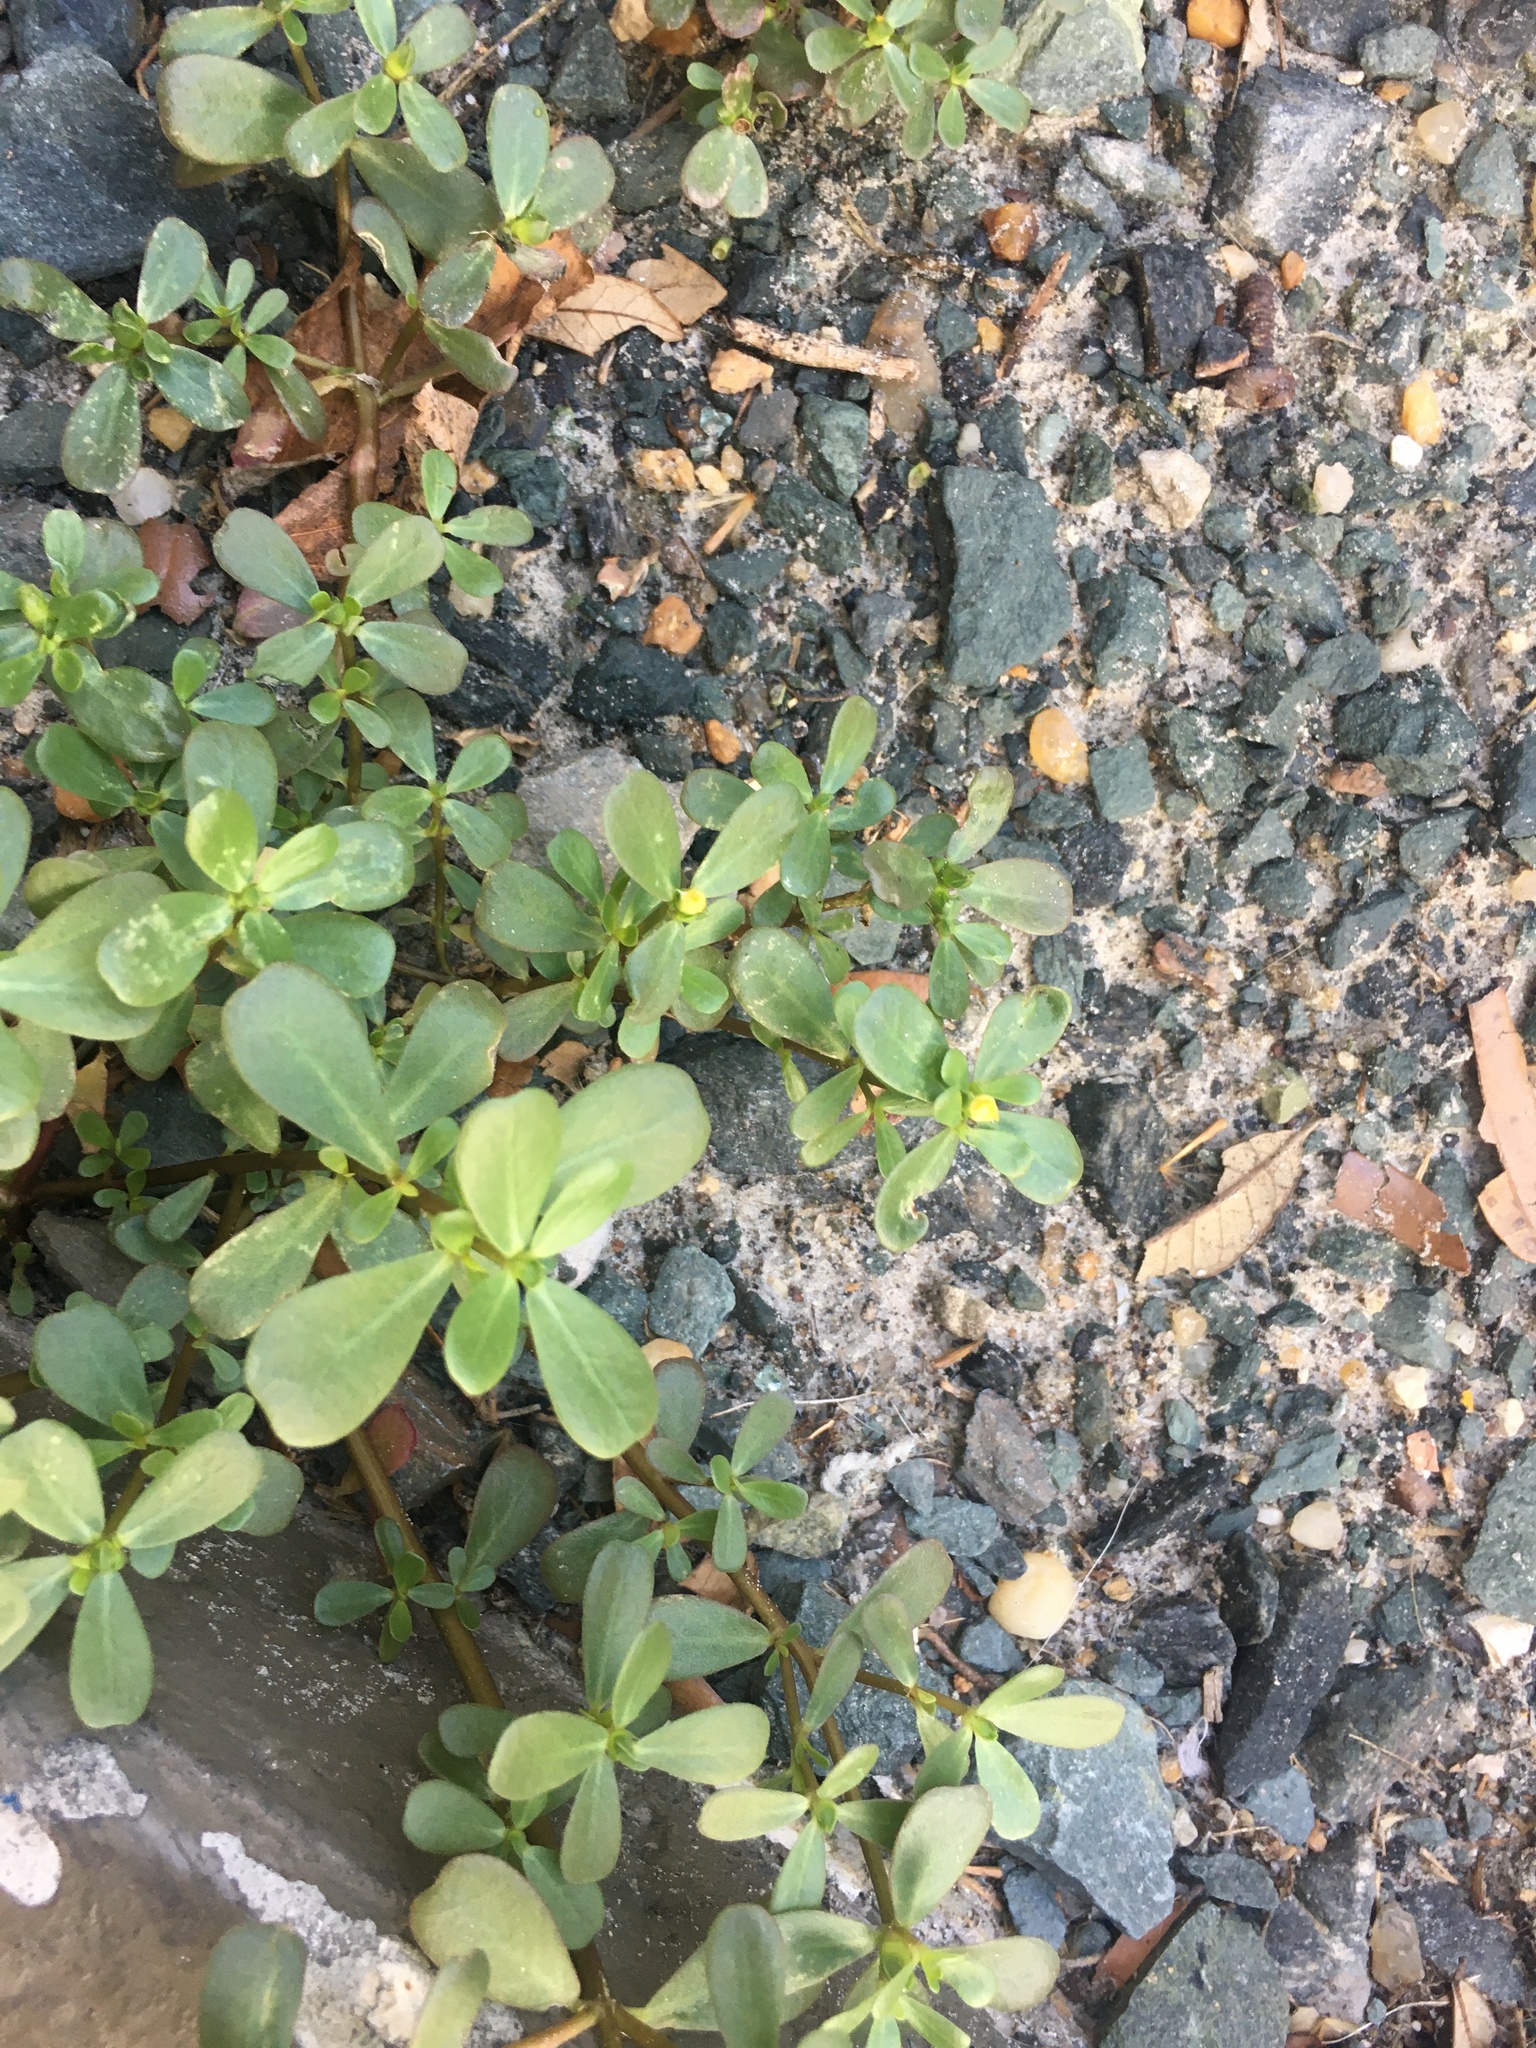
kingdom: Plantae
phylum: Tracheophyta
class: Magnoliopsida
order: Caryophyllales
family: Portulacaceae
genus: Portulaca
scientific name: Portulaca oleracea
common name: Common purslane
